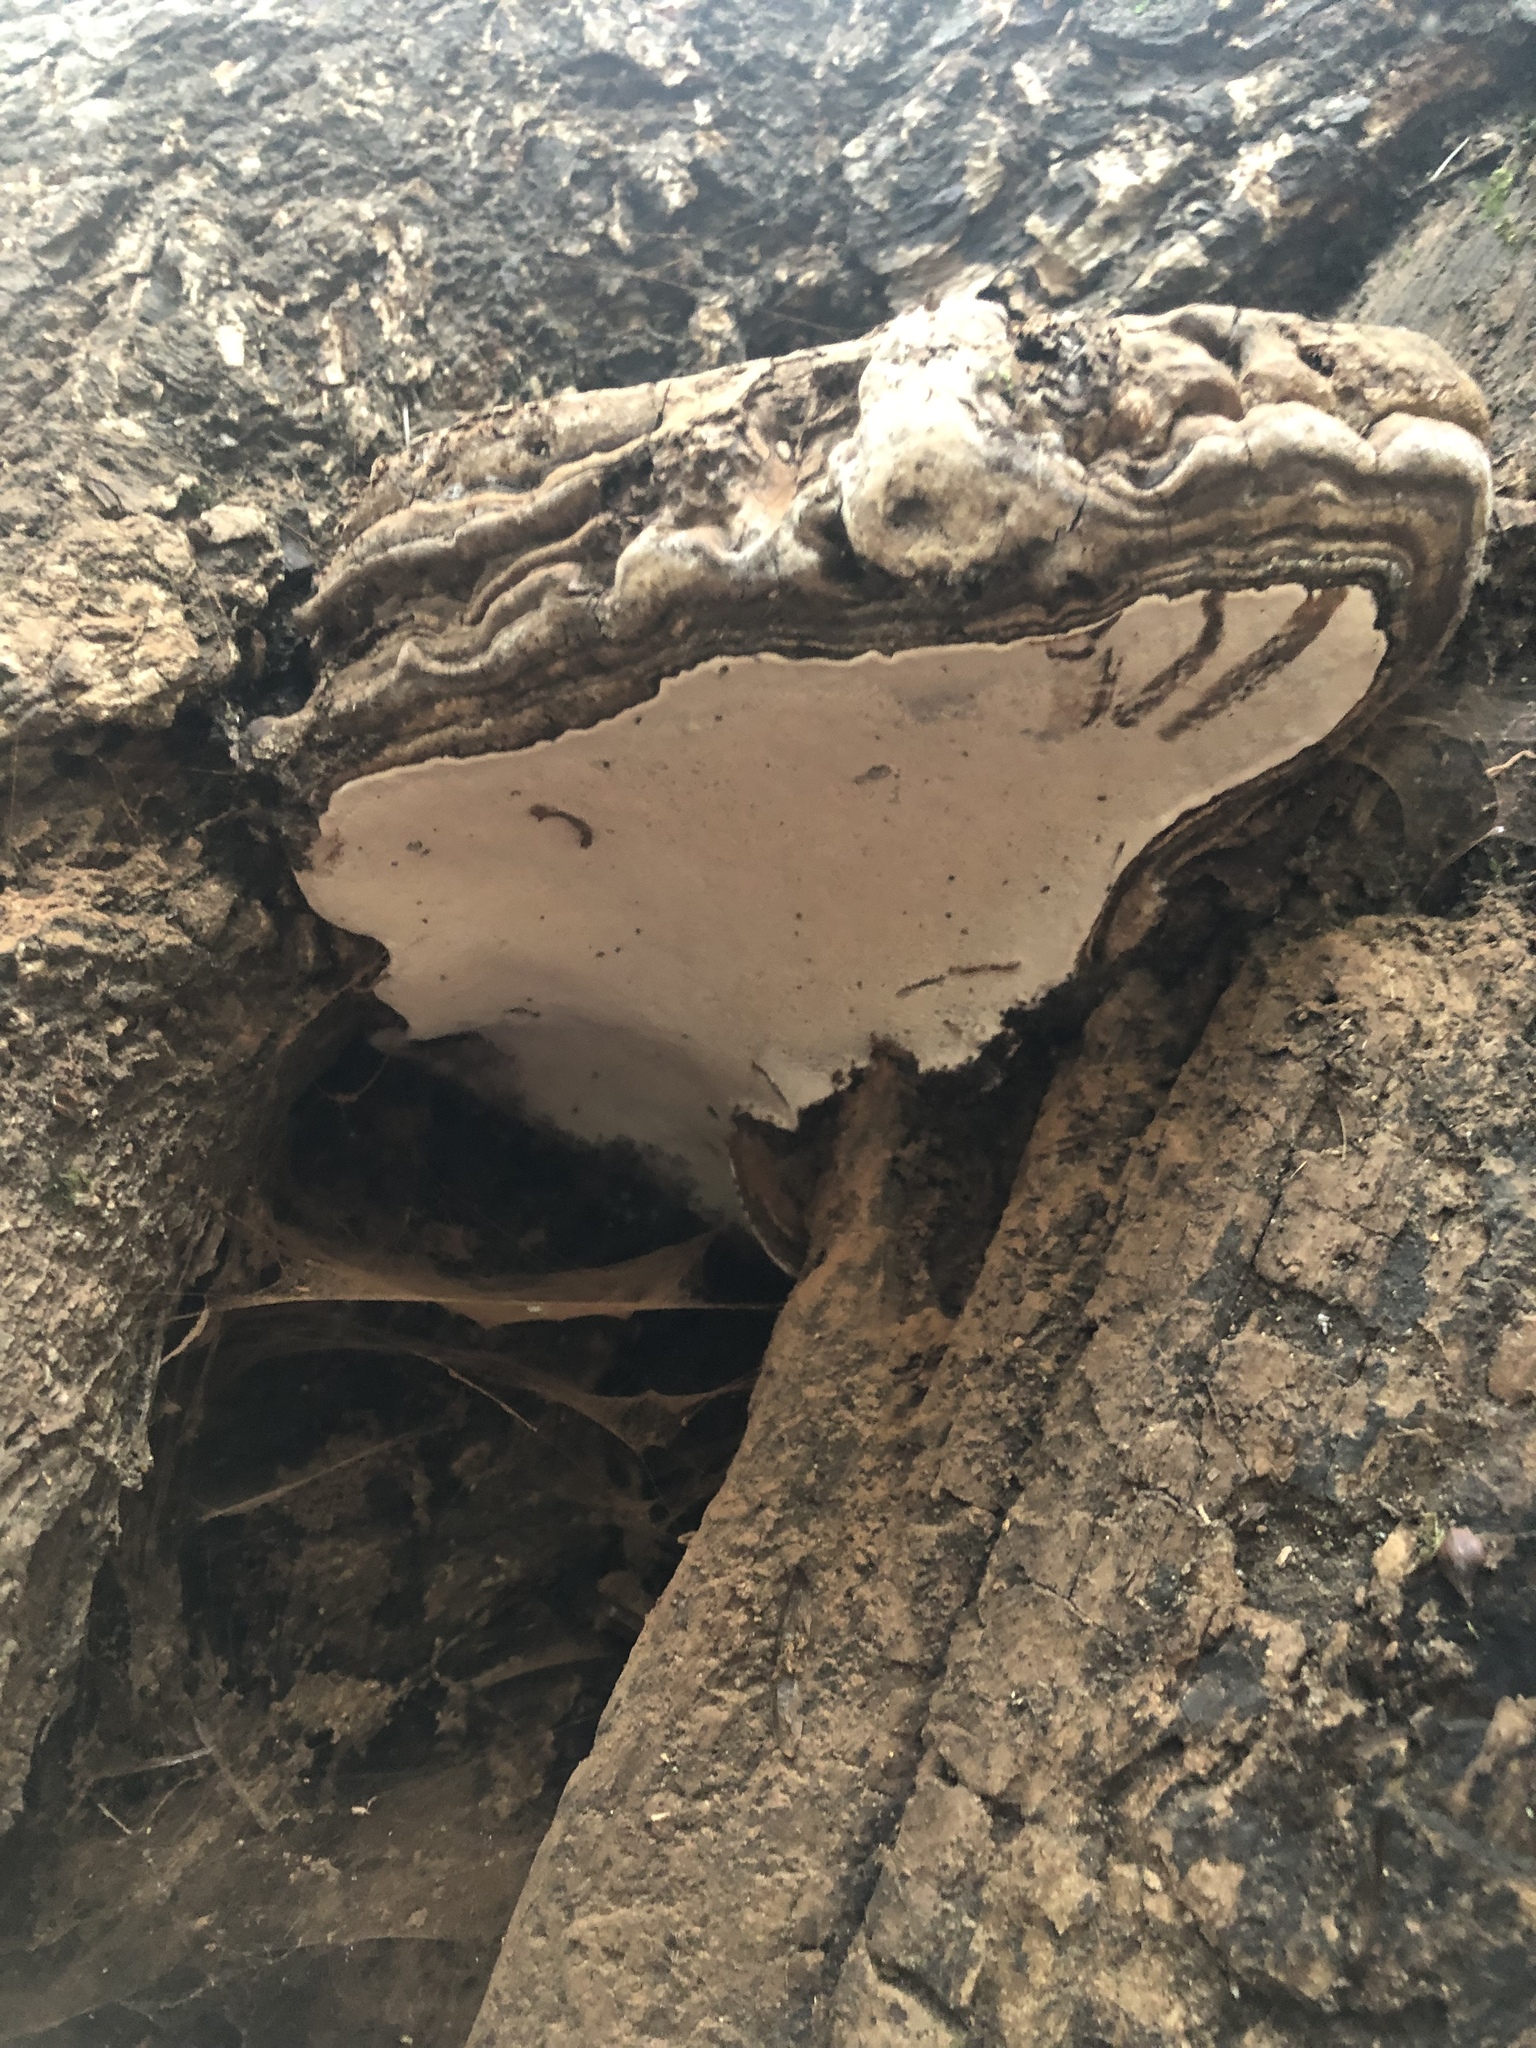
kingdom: Fungi
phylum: Basidiomycota
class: Agaricomycetes
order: Polyporales
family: Polyporaceae
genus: Ganoderma
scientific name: Ganoderma applanatum
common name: Artist's bracket
